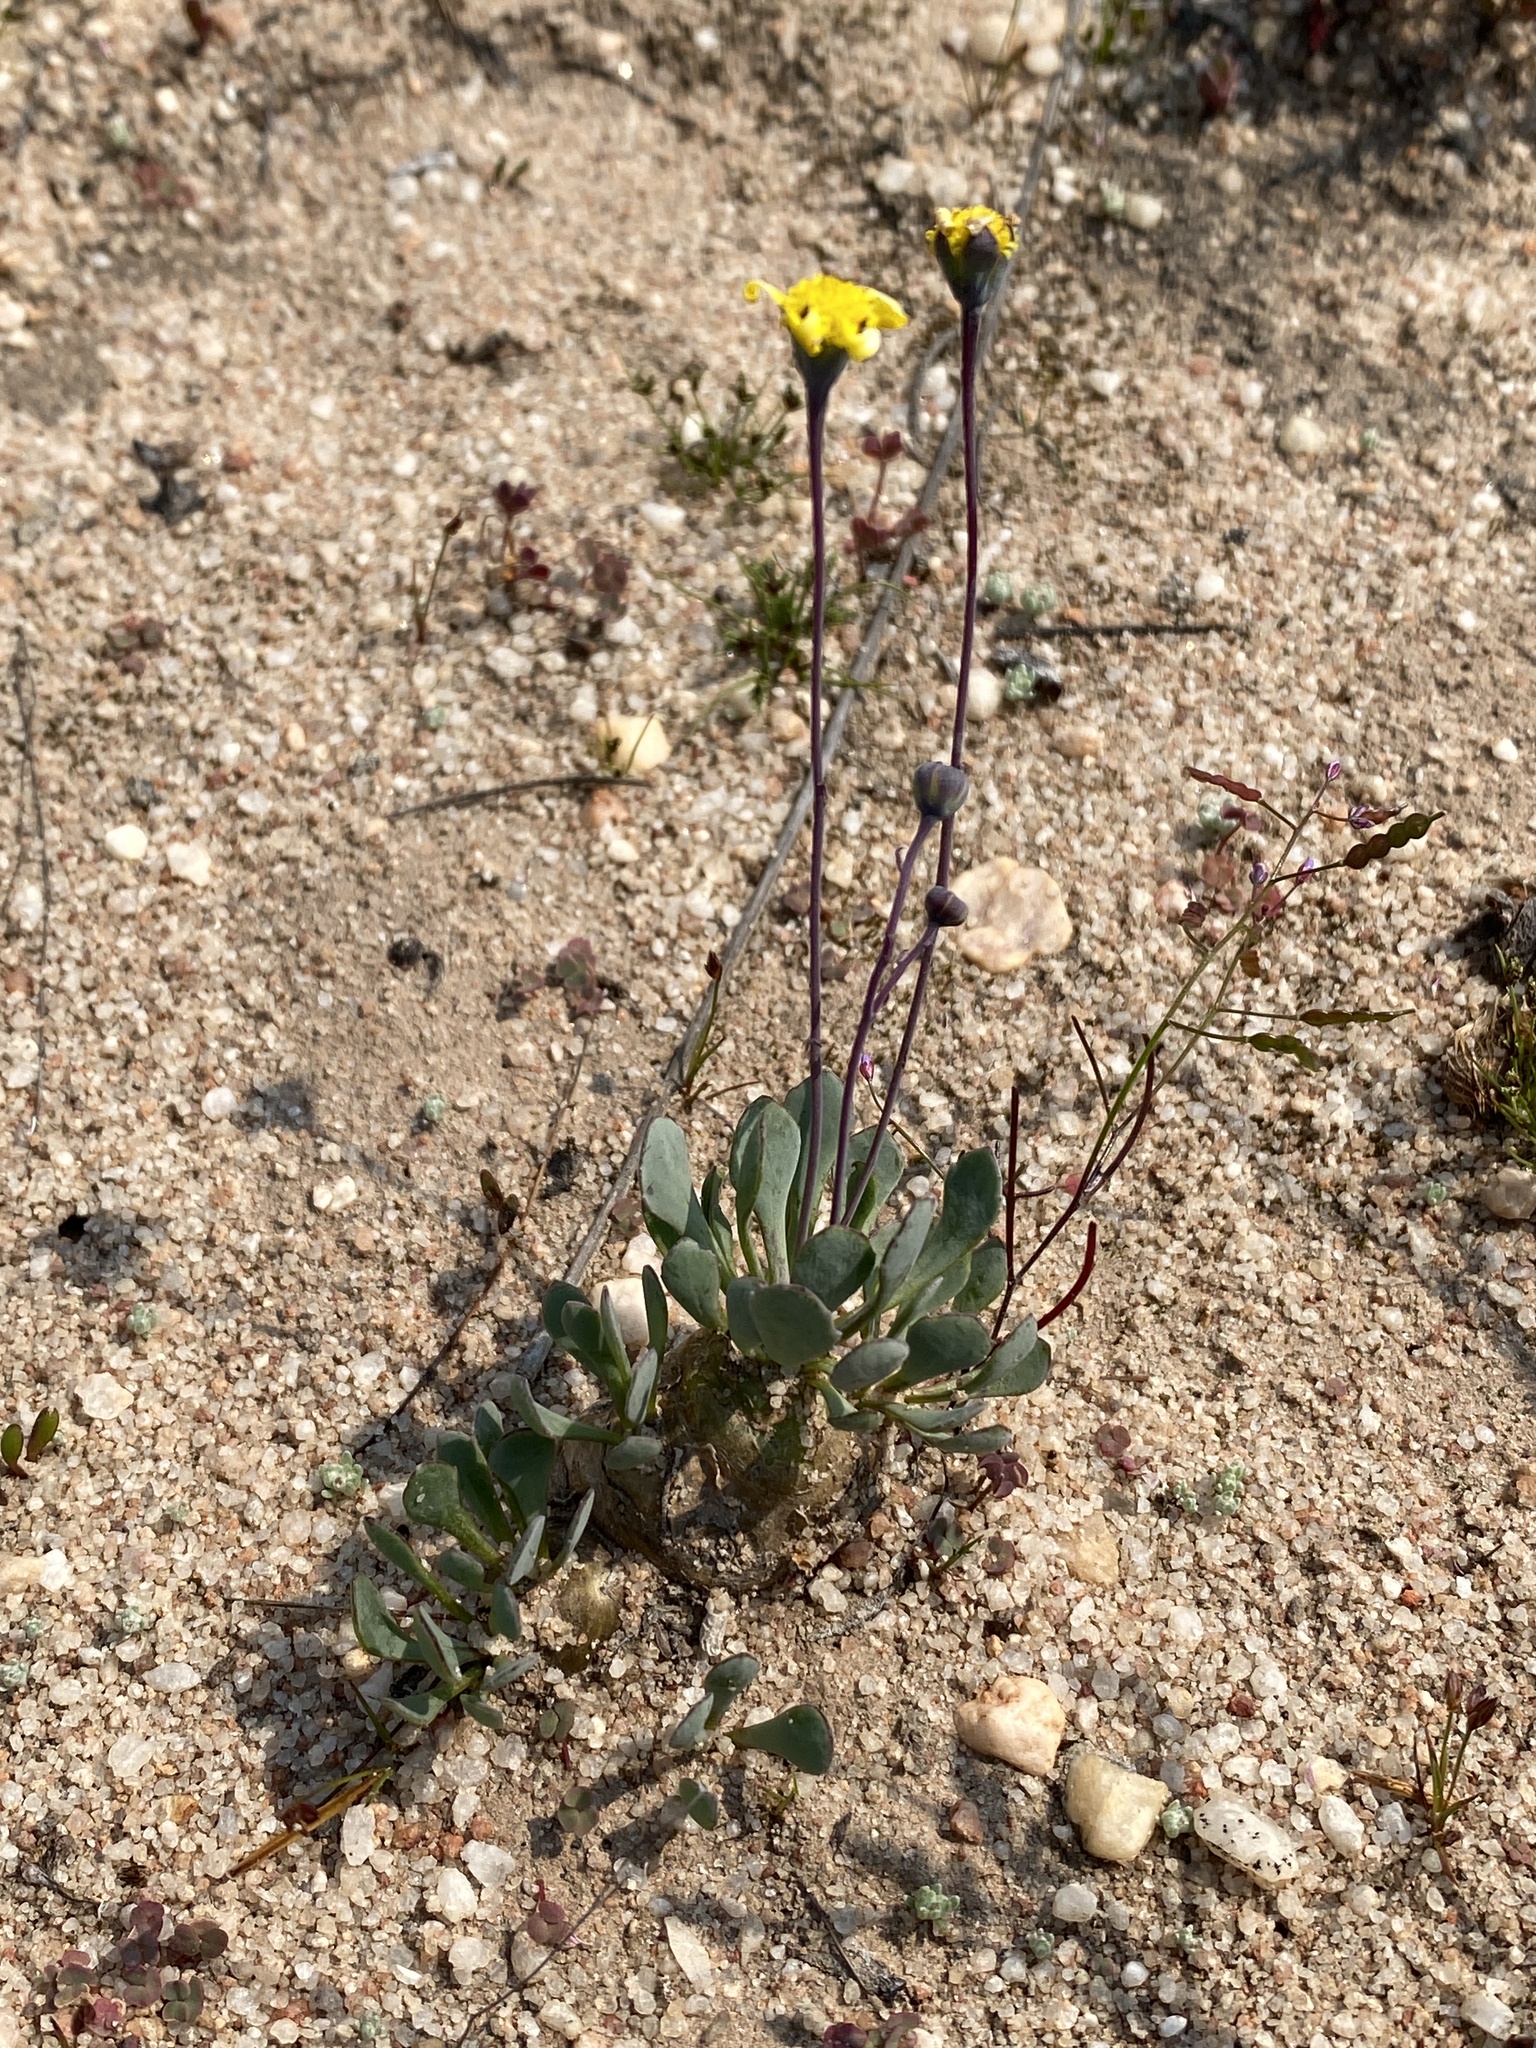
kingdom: Plantae
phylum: Tracheophyta
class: Magnoliopsida
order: Asterales
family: Asteraceae
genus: Crassothonna
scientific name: Crassothonna cacalioides
